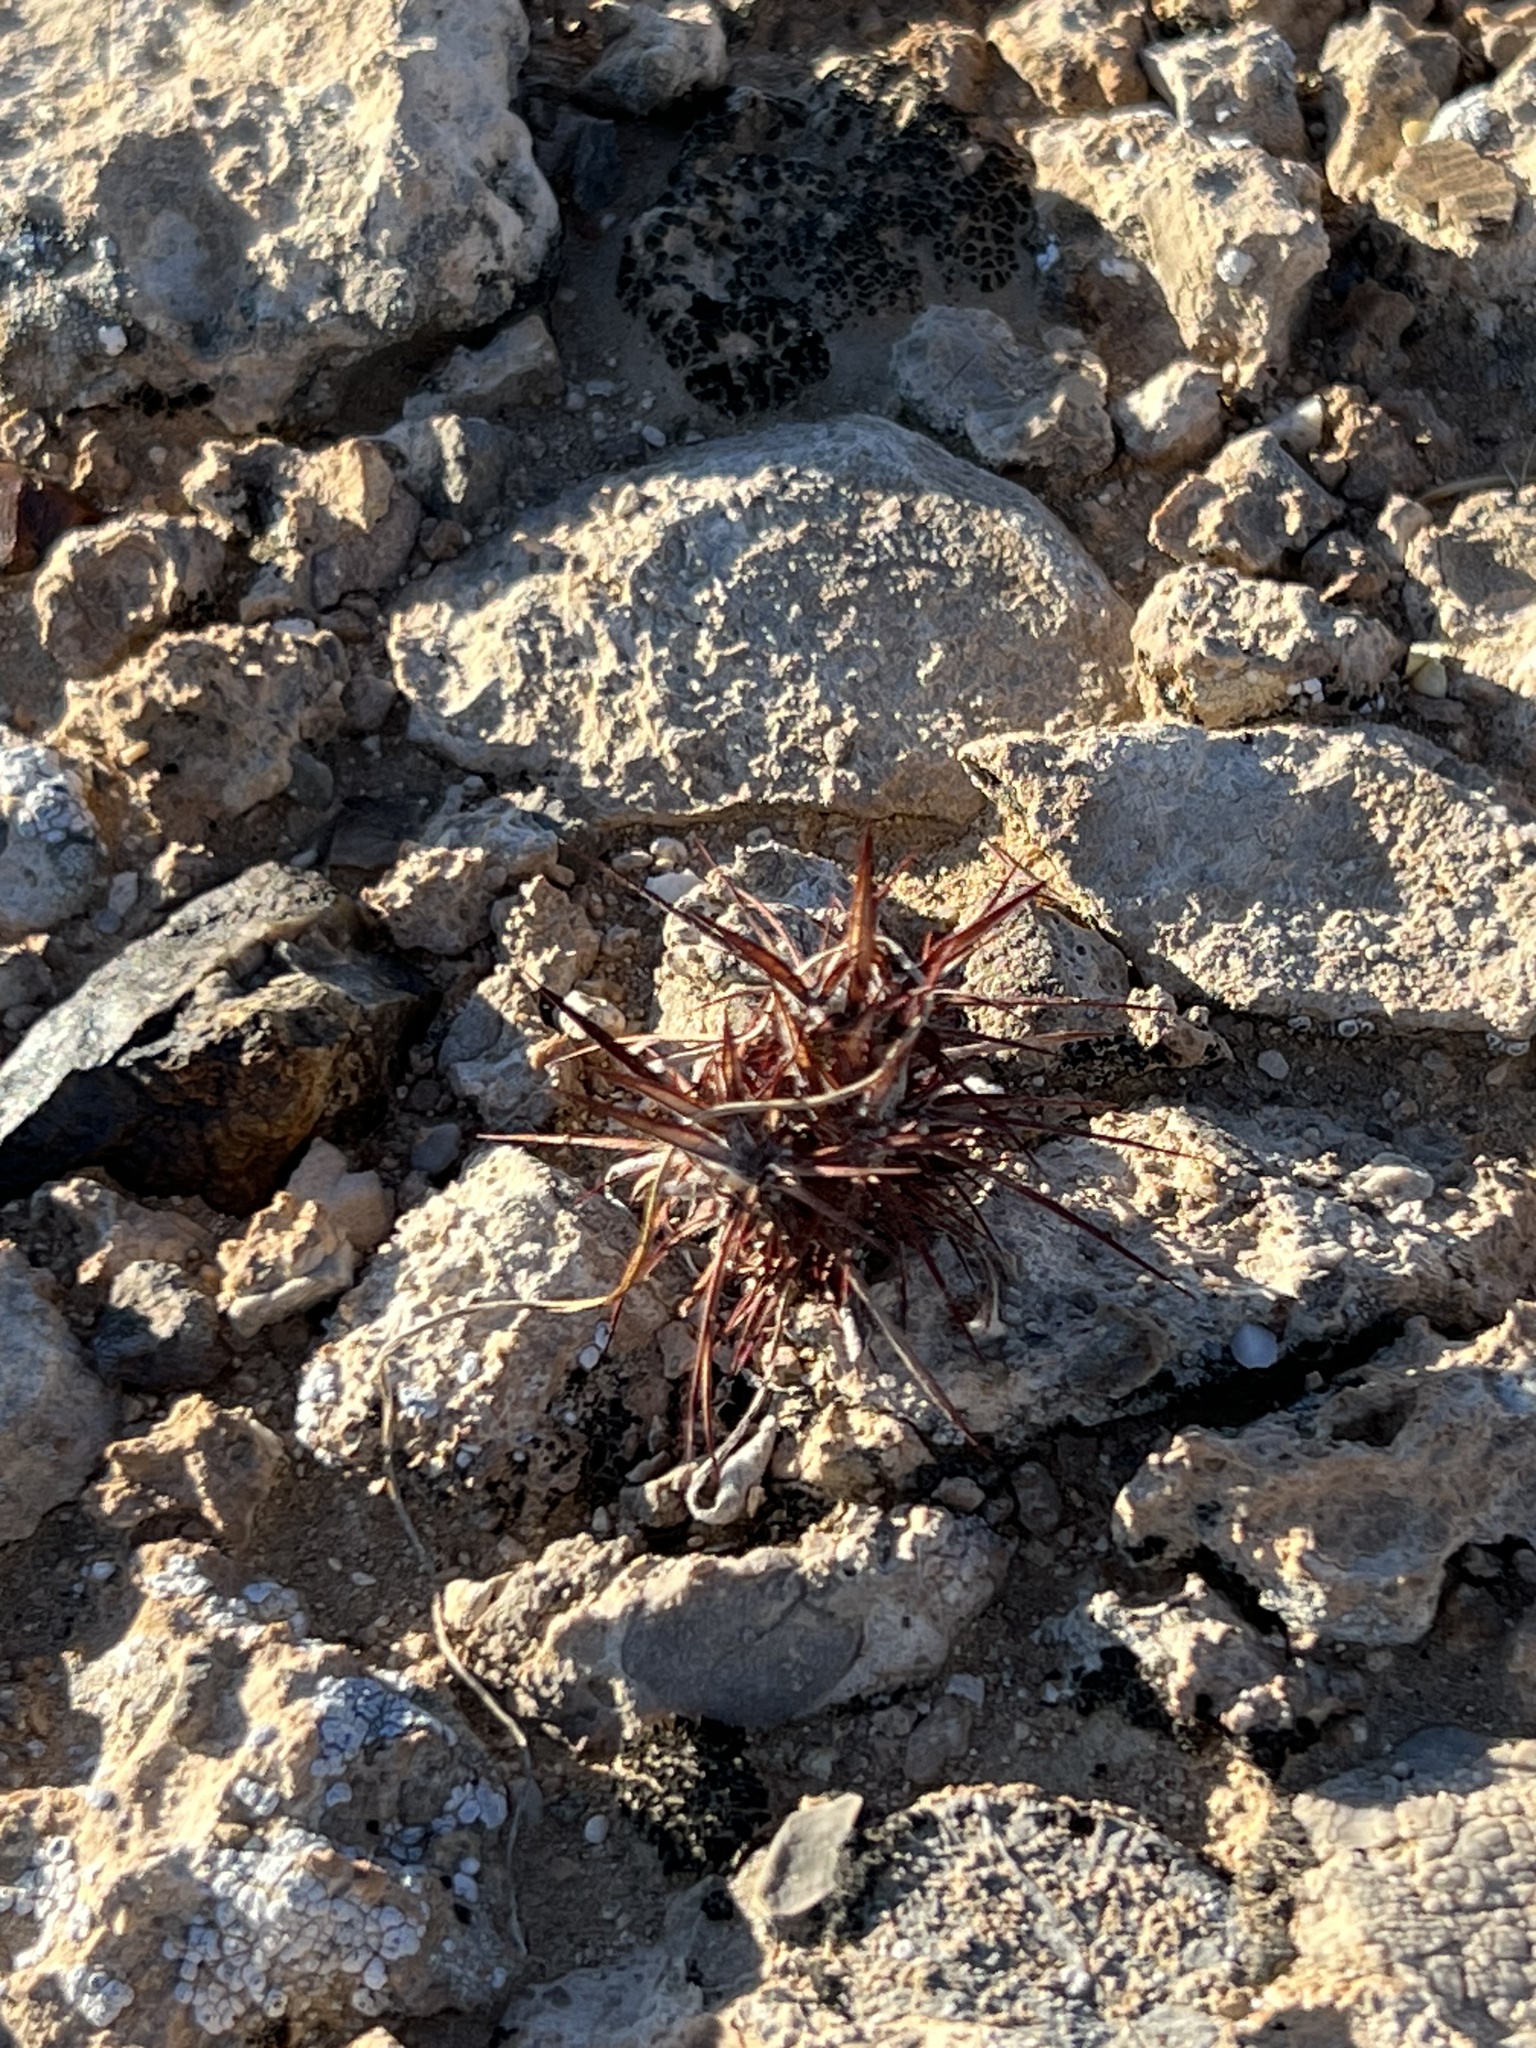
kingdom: Plantae
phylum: Tracheophyta
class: Magnoliopsida
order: Caryophyllales
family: Polygonaceae
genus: Chorizanthe
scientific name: Chorizanthe rigida
